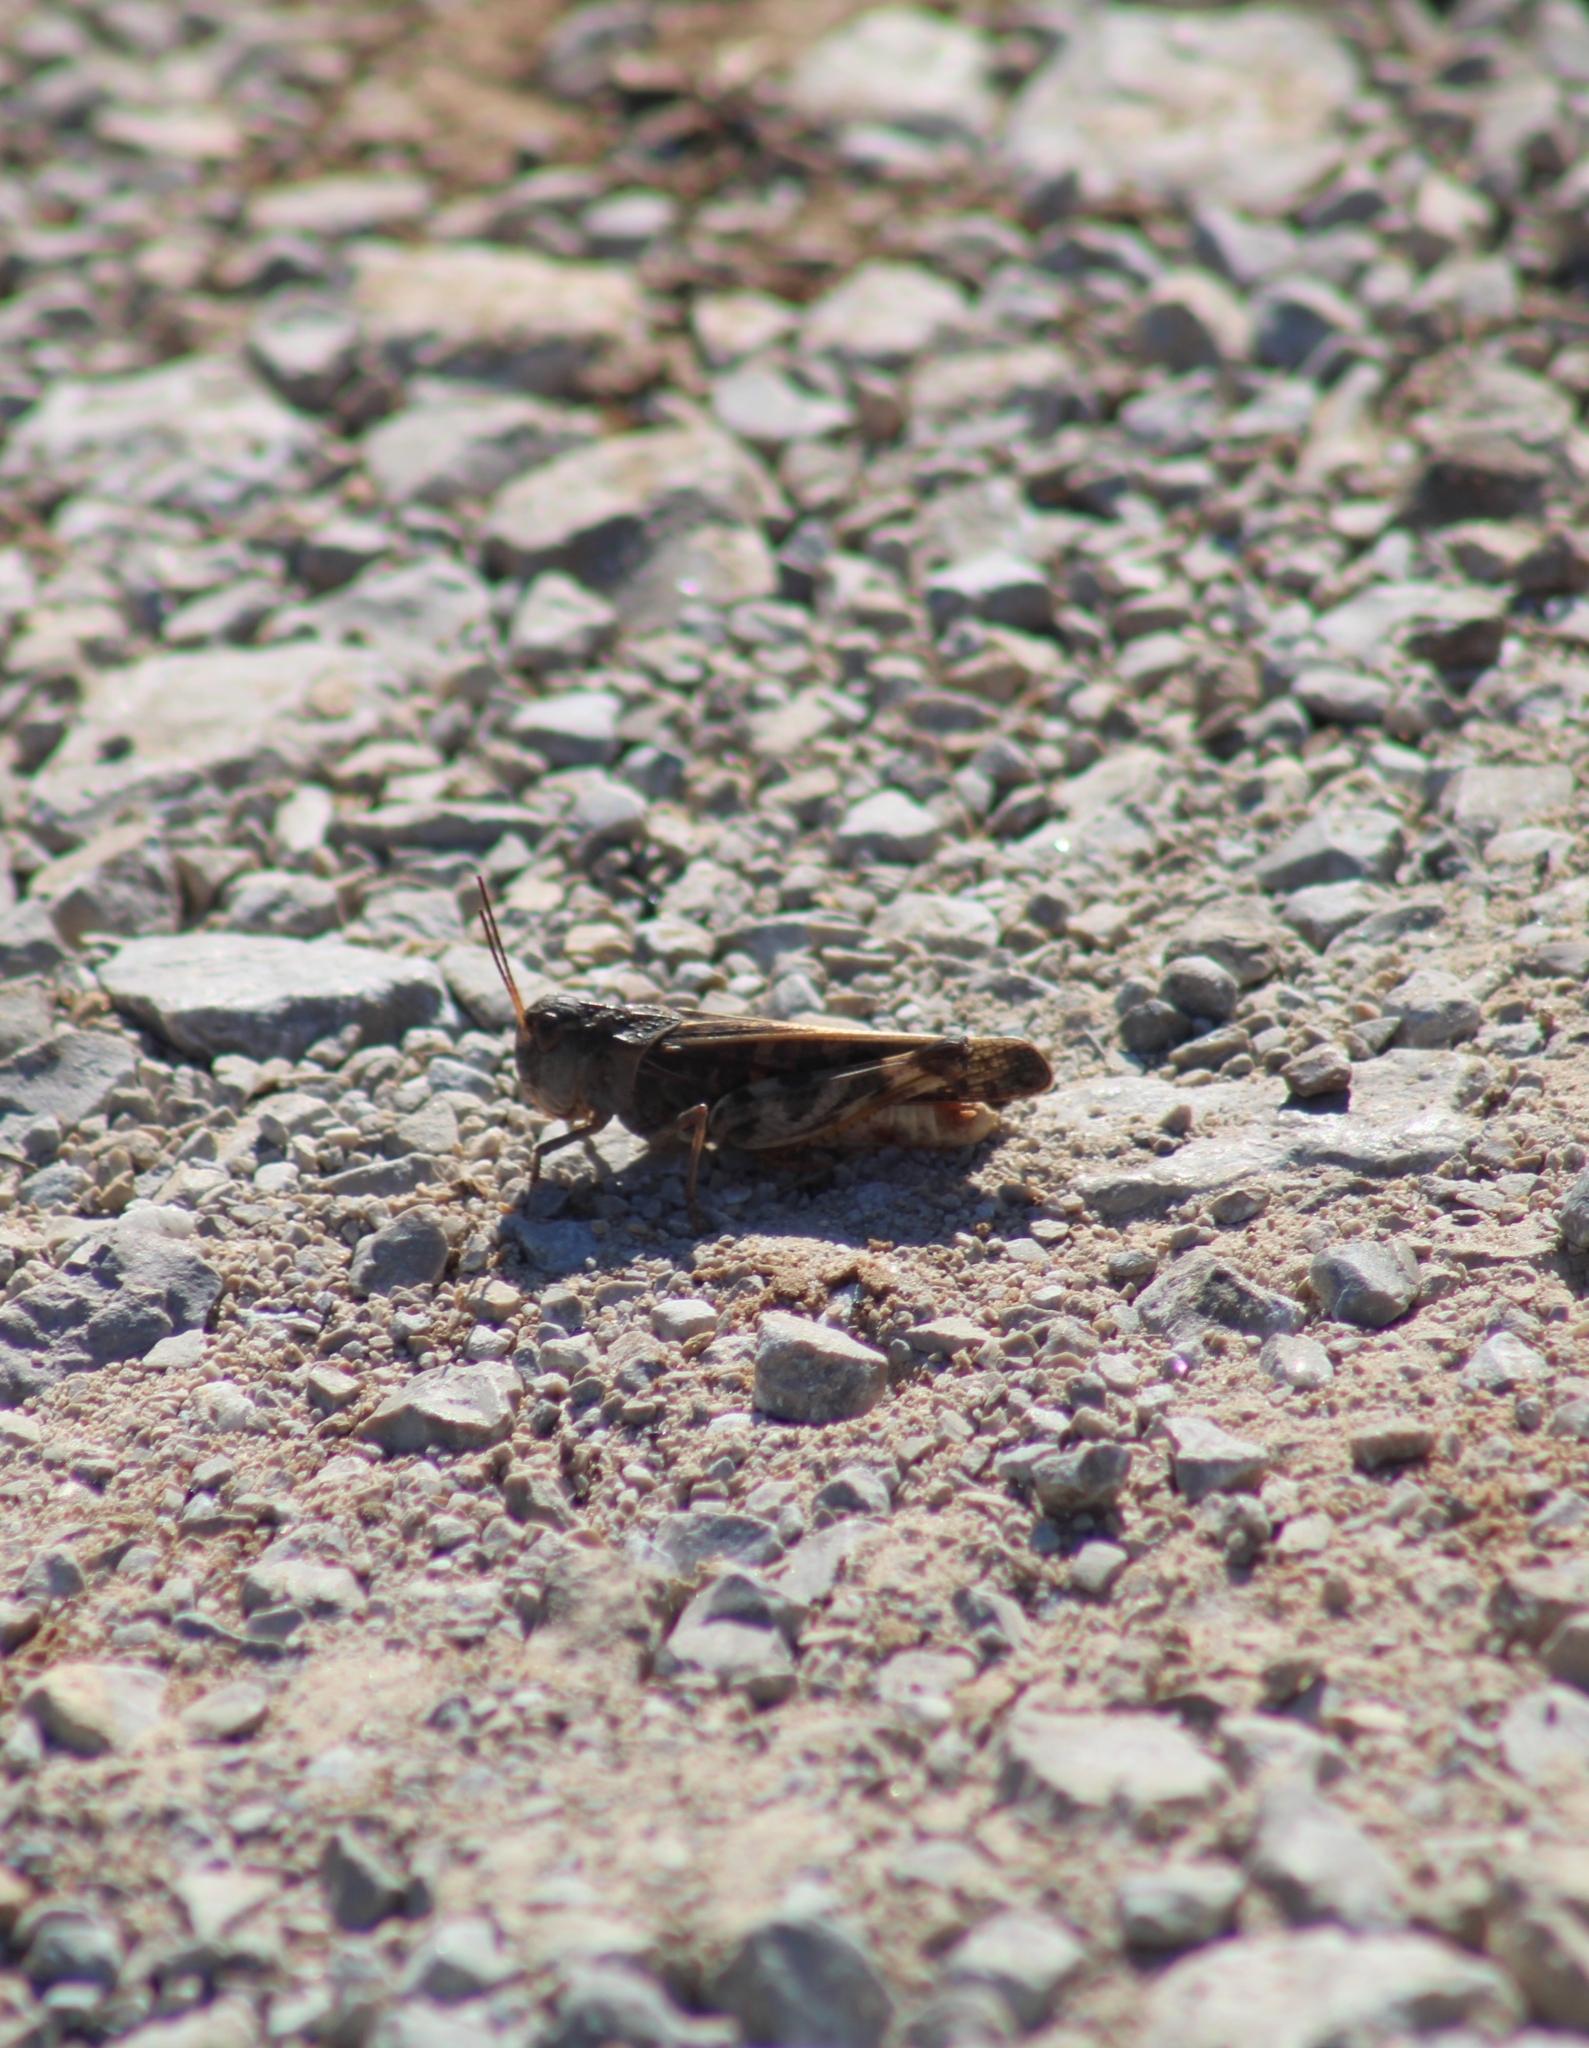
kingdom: Animalia
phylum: Arthropoda
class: Insecta
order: Orthoptera
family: Acrididae
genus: Hippiscus
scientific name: Hippiscus ocelote
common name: Wrinkled grasshopper
